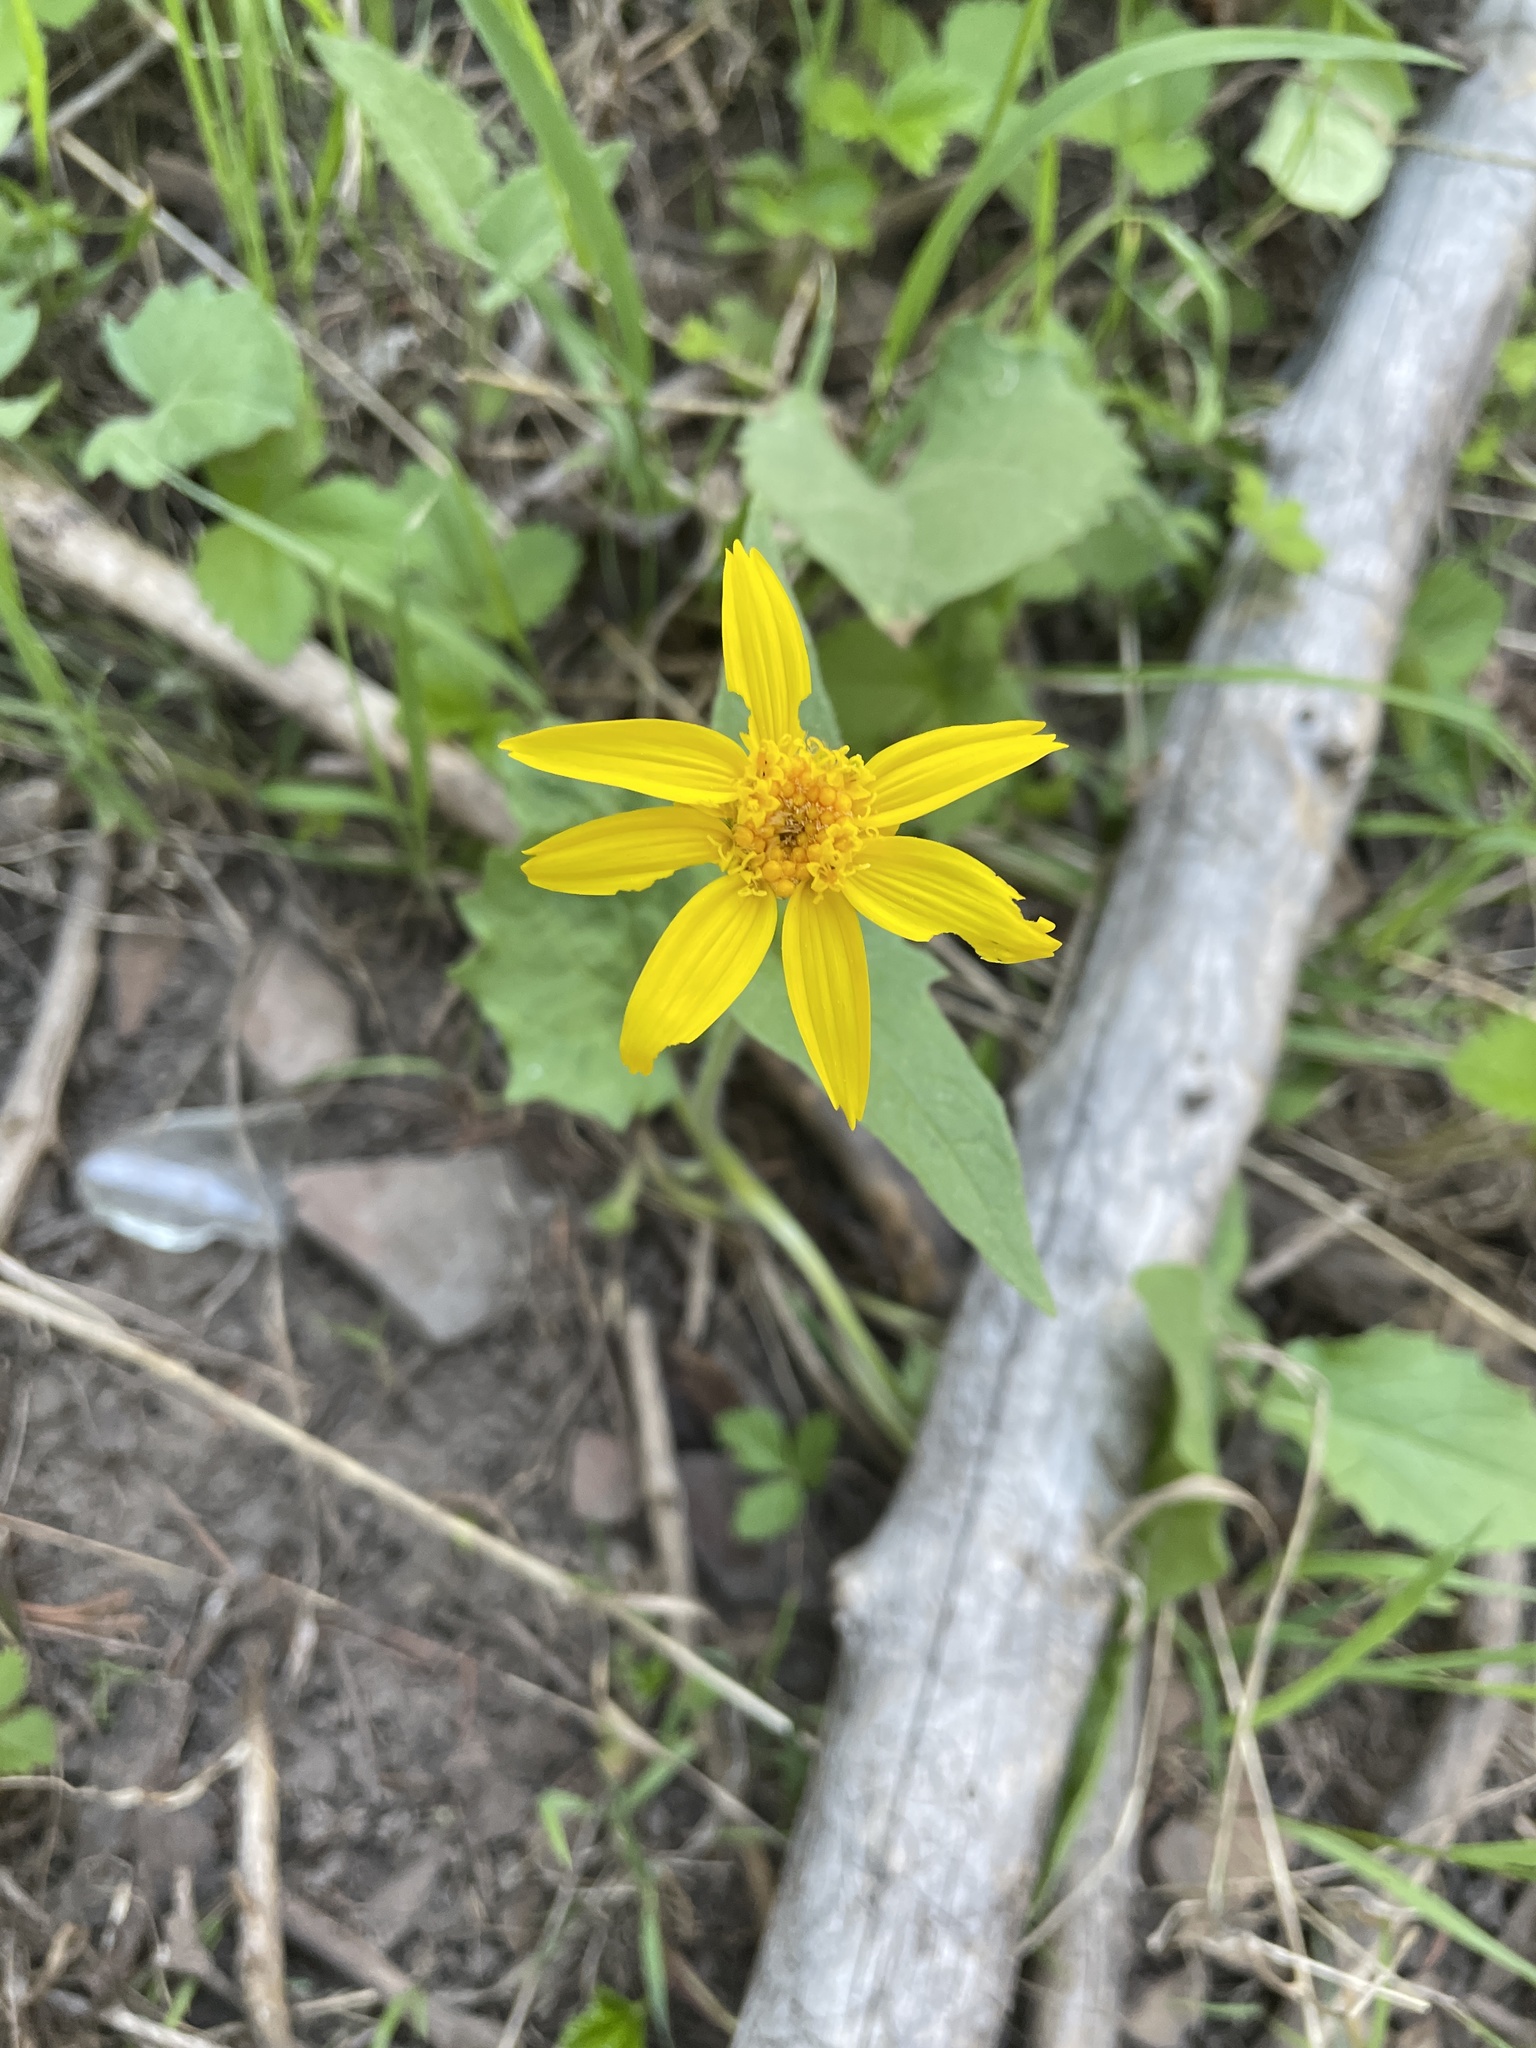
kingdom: Plantae
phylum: Tracheophyta
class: Magnoliopsida
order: Asterales
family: Asteraceae
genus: Arnica
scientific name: Arnica cordifolia
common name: Heart-leaf arnica
